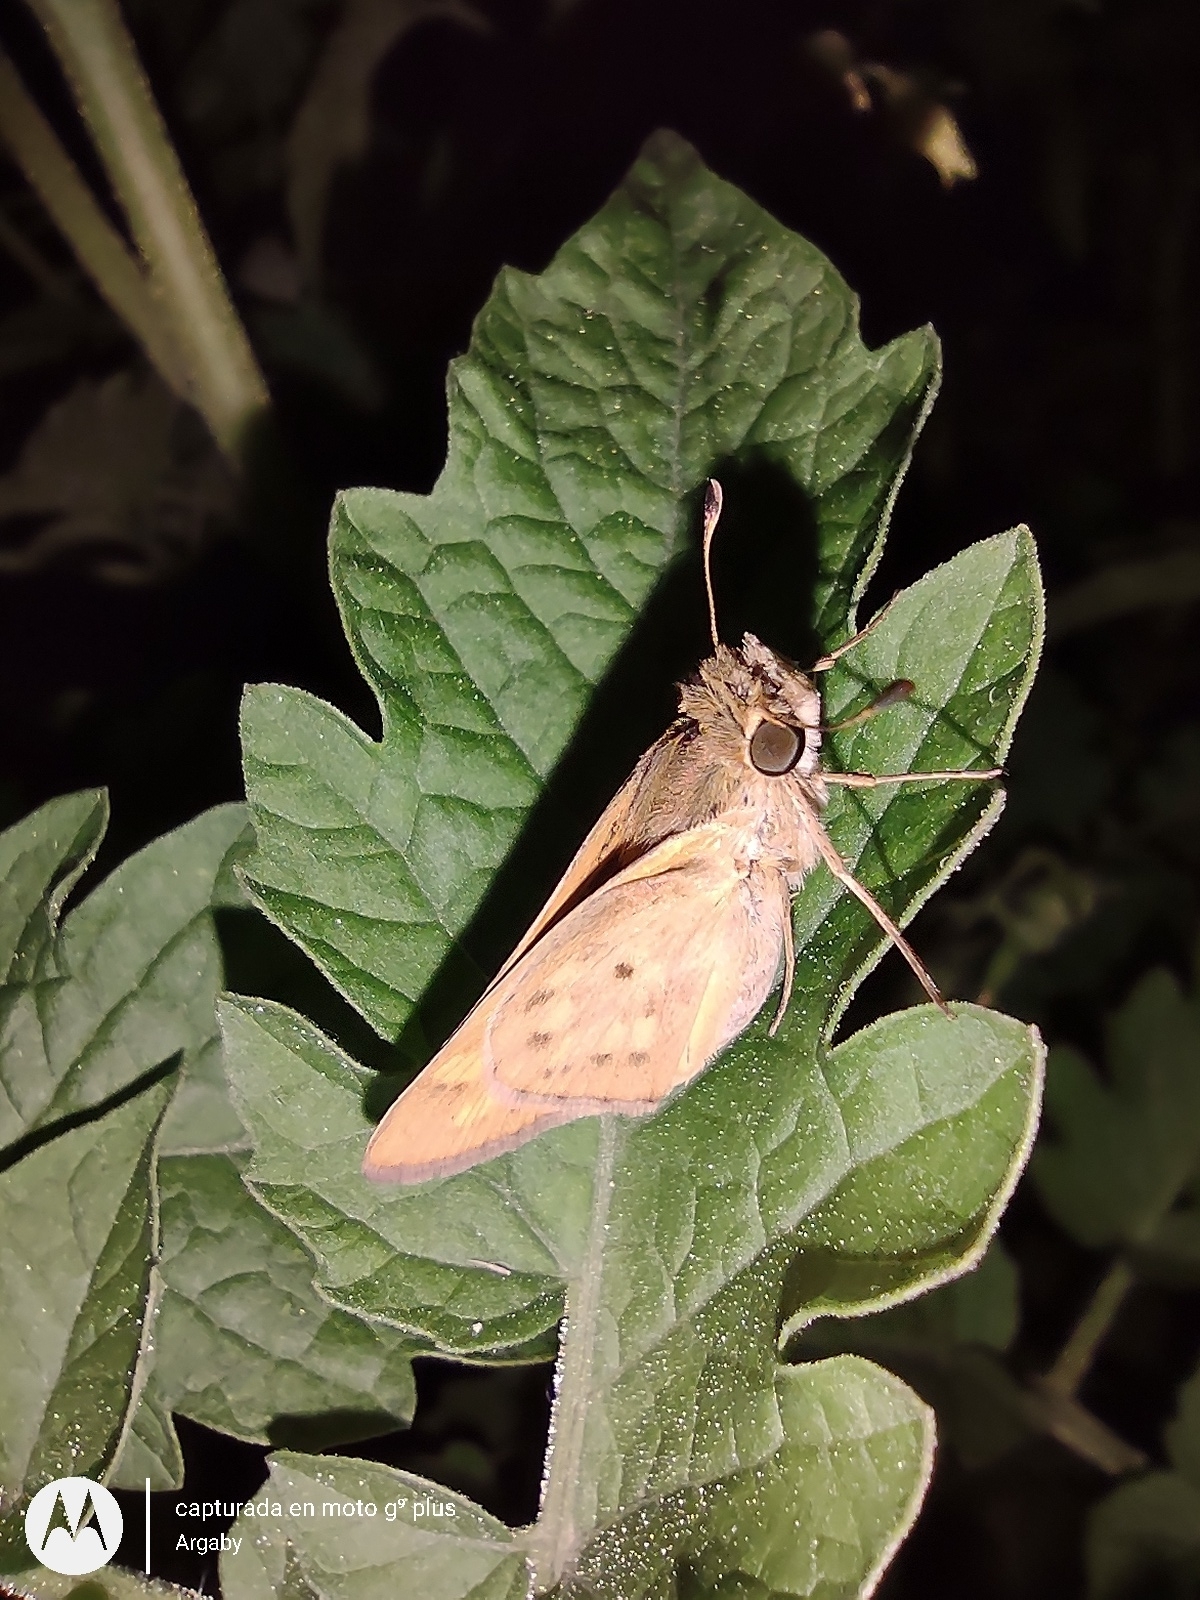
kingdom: Animalia
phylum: Arthropoda
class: Insecta
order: Lepidoptera
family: Hesperiidae
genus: Hylephila
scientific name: Hylephila phyleus
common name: Fiery skipper
